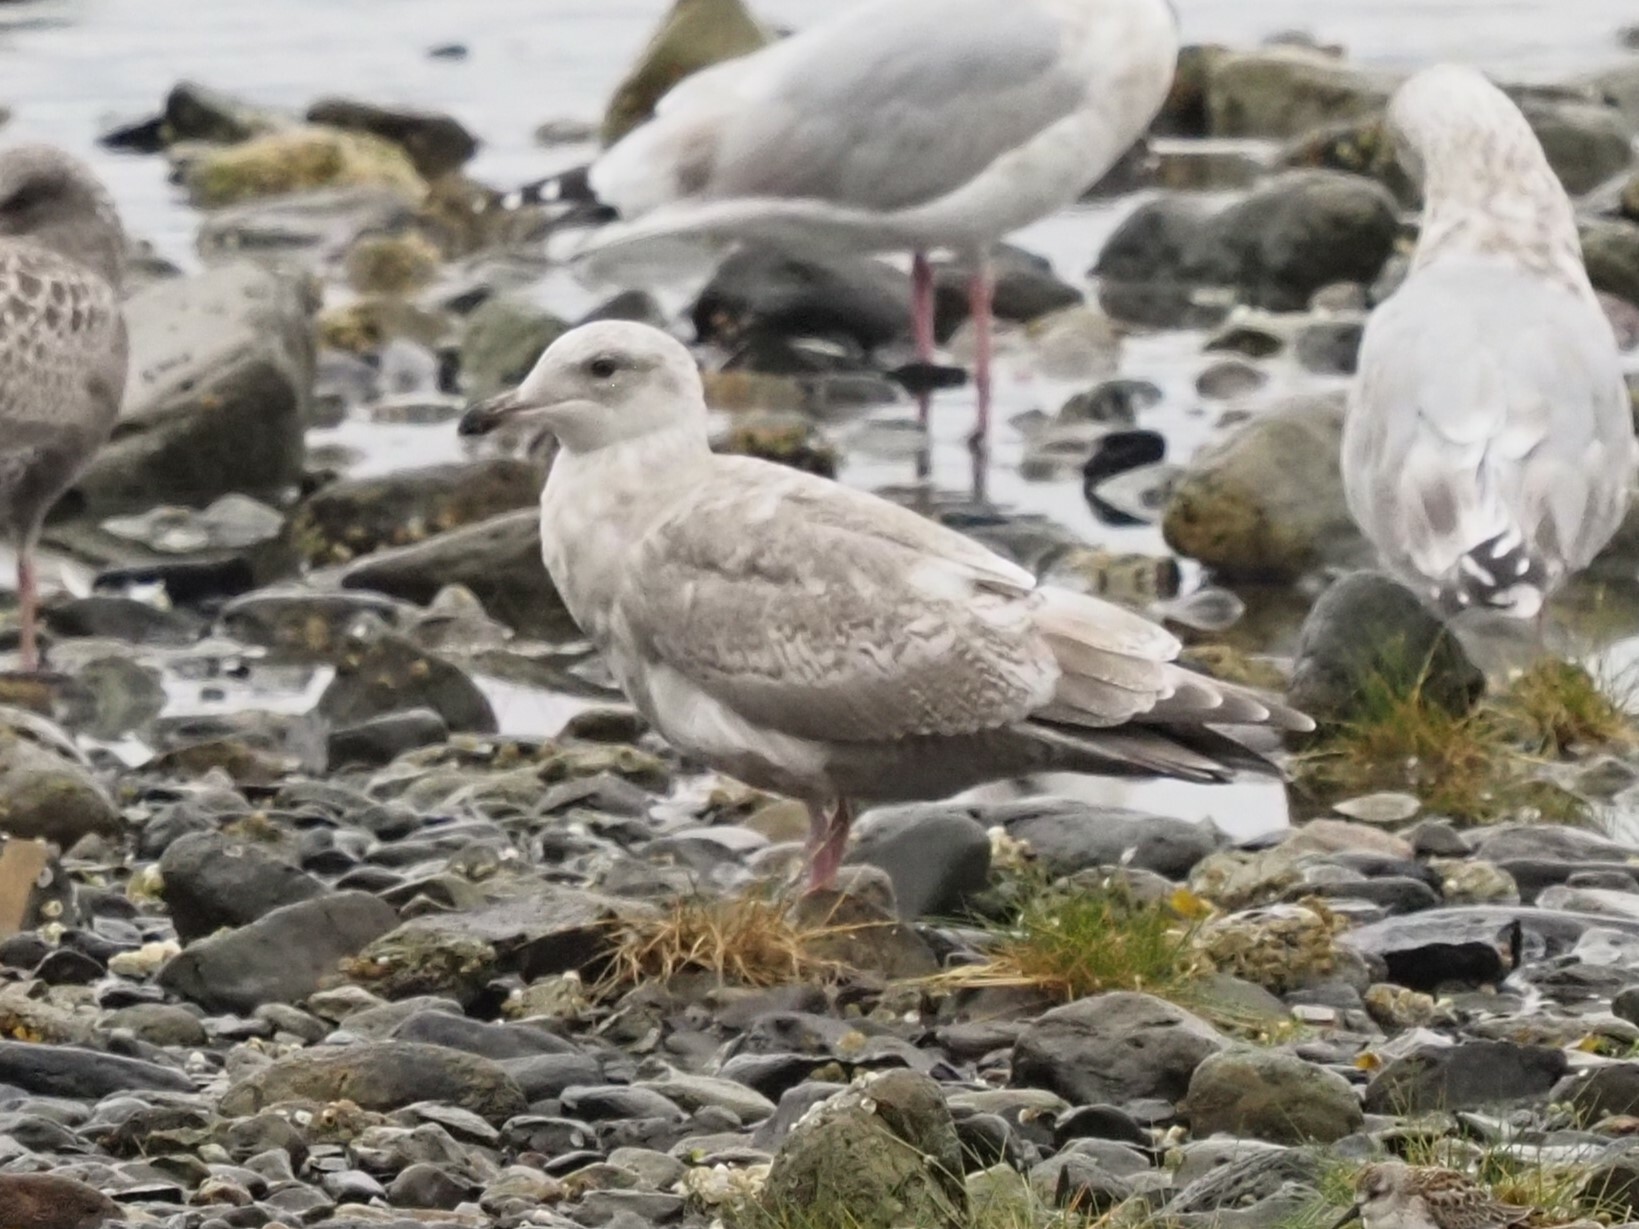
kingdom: Animalia
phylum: Chordata
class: Aves
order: Charadriiformes
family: Laridae
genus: Larus
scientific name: Larus
